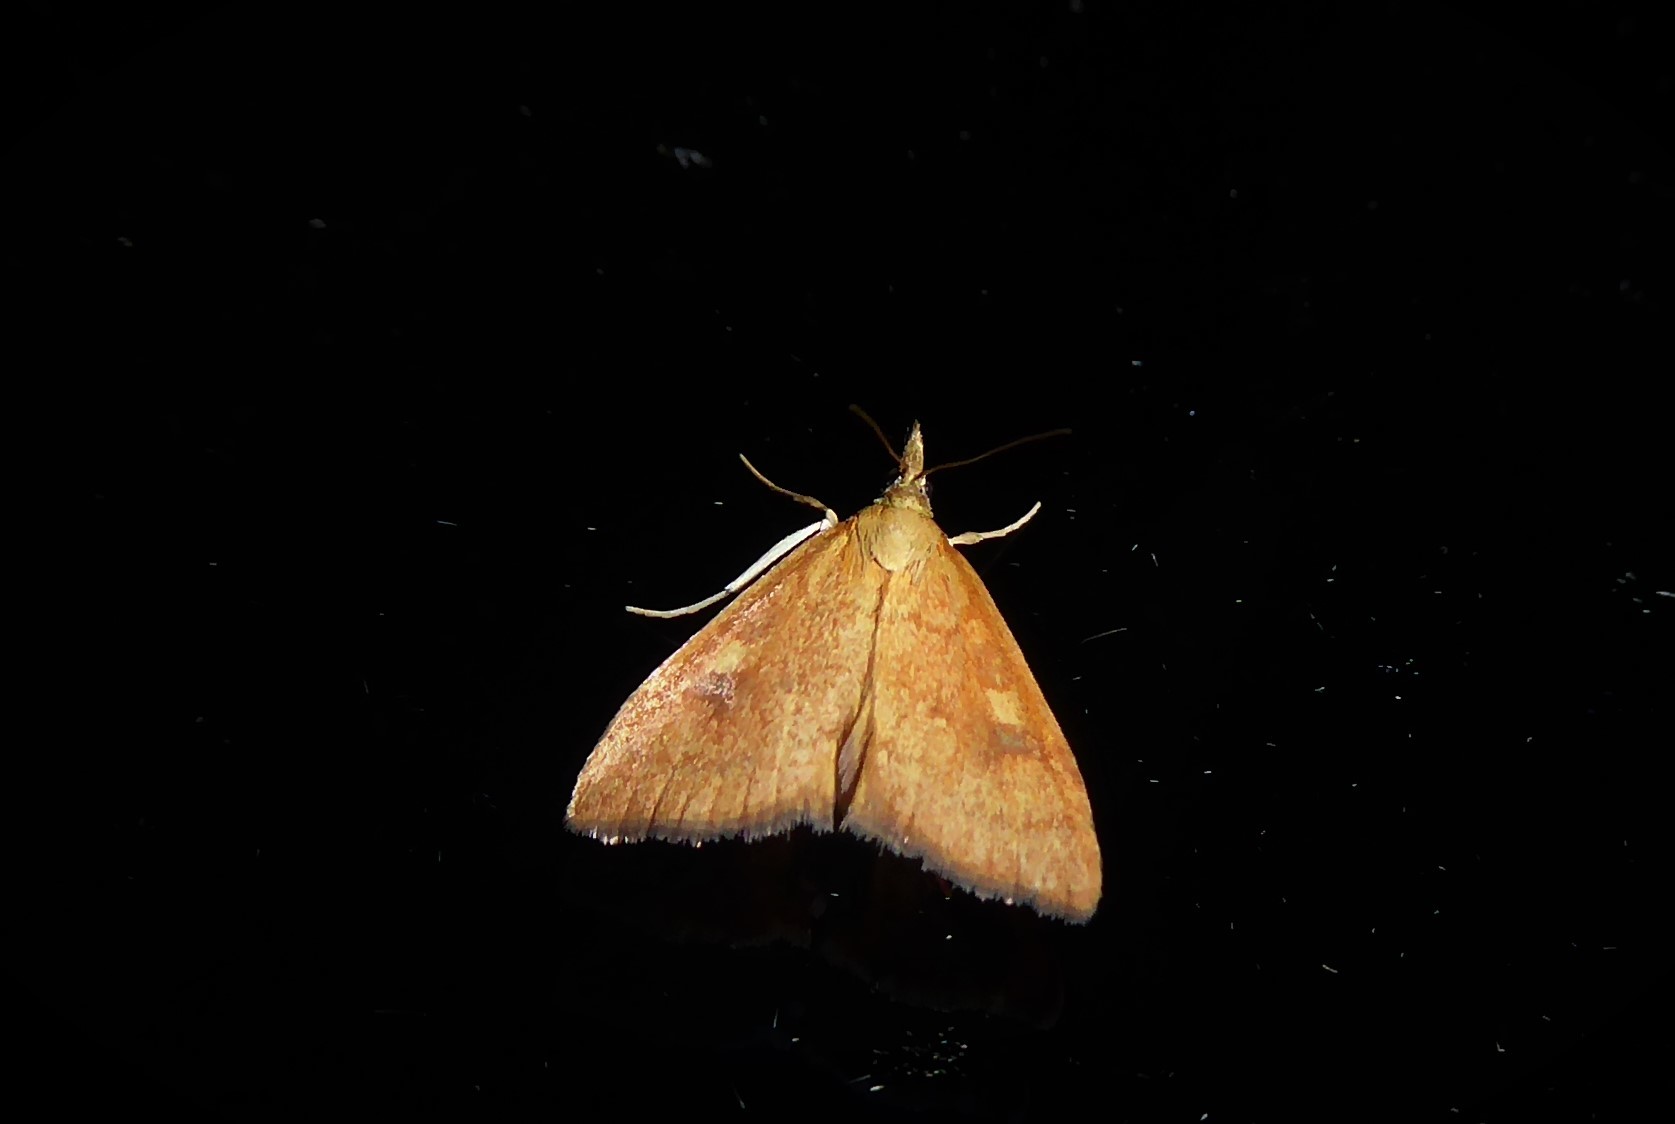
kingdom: Animalia
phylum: Arthropoda
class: Insecta
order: Lepidoptera
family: Crambidae
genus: Udea
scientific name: Udea Mnesictena flavidalis
